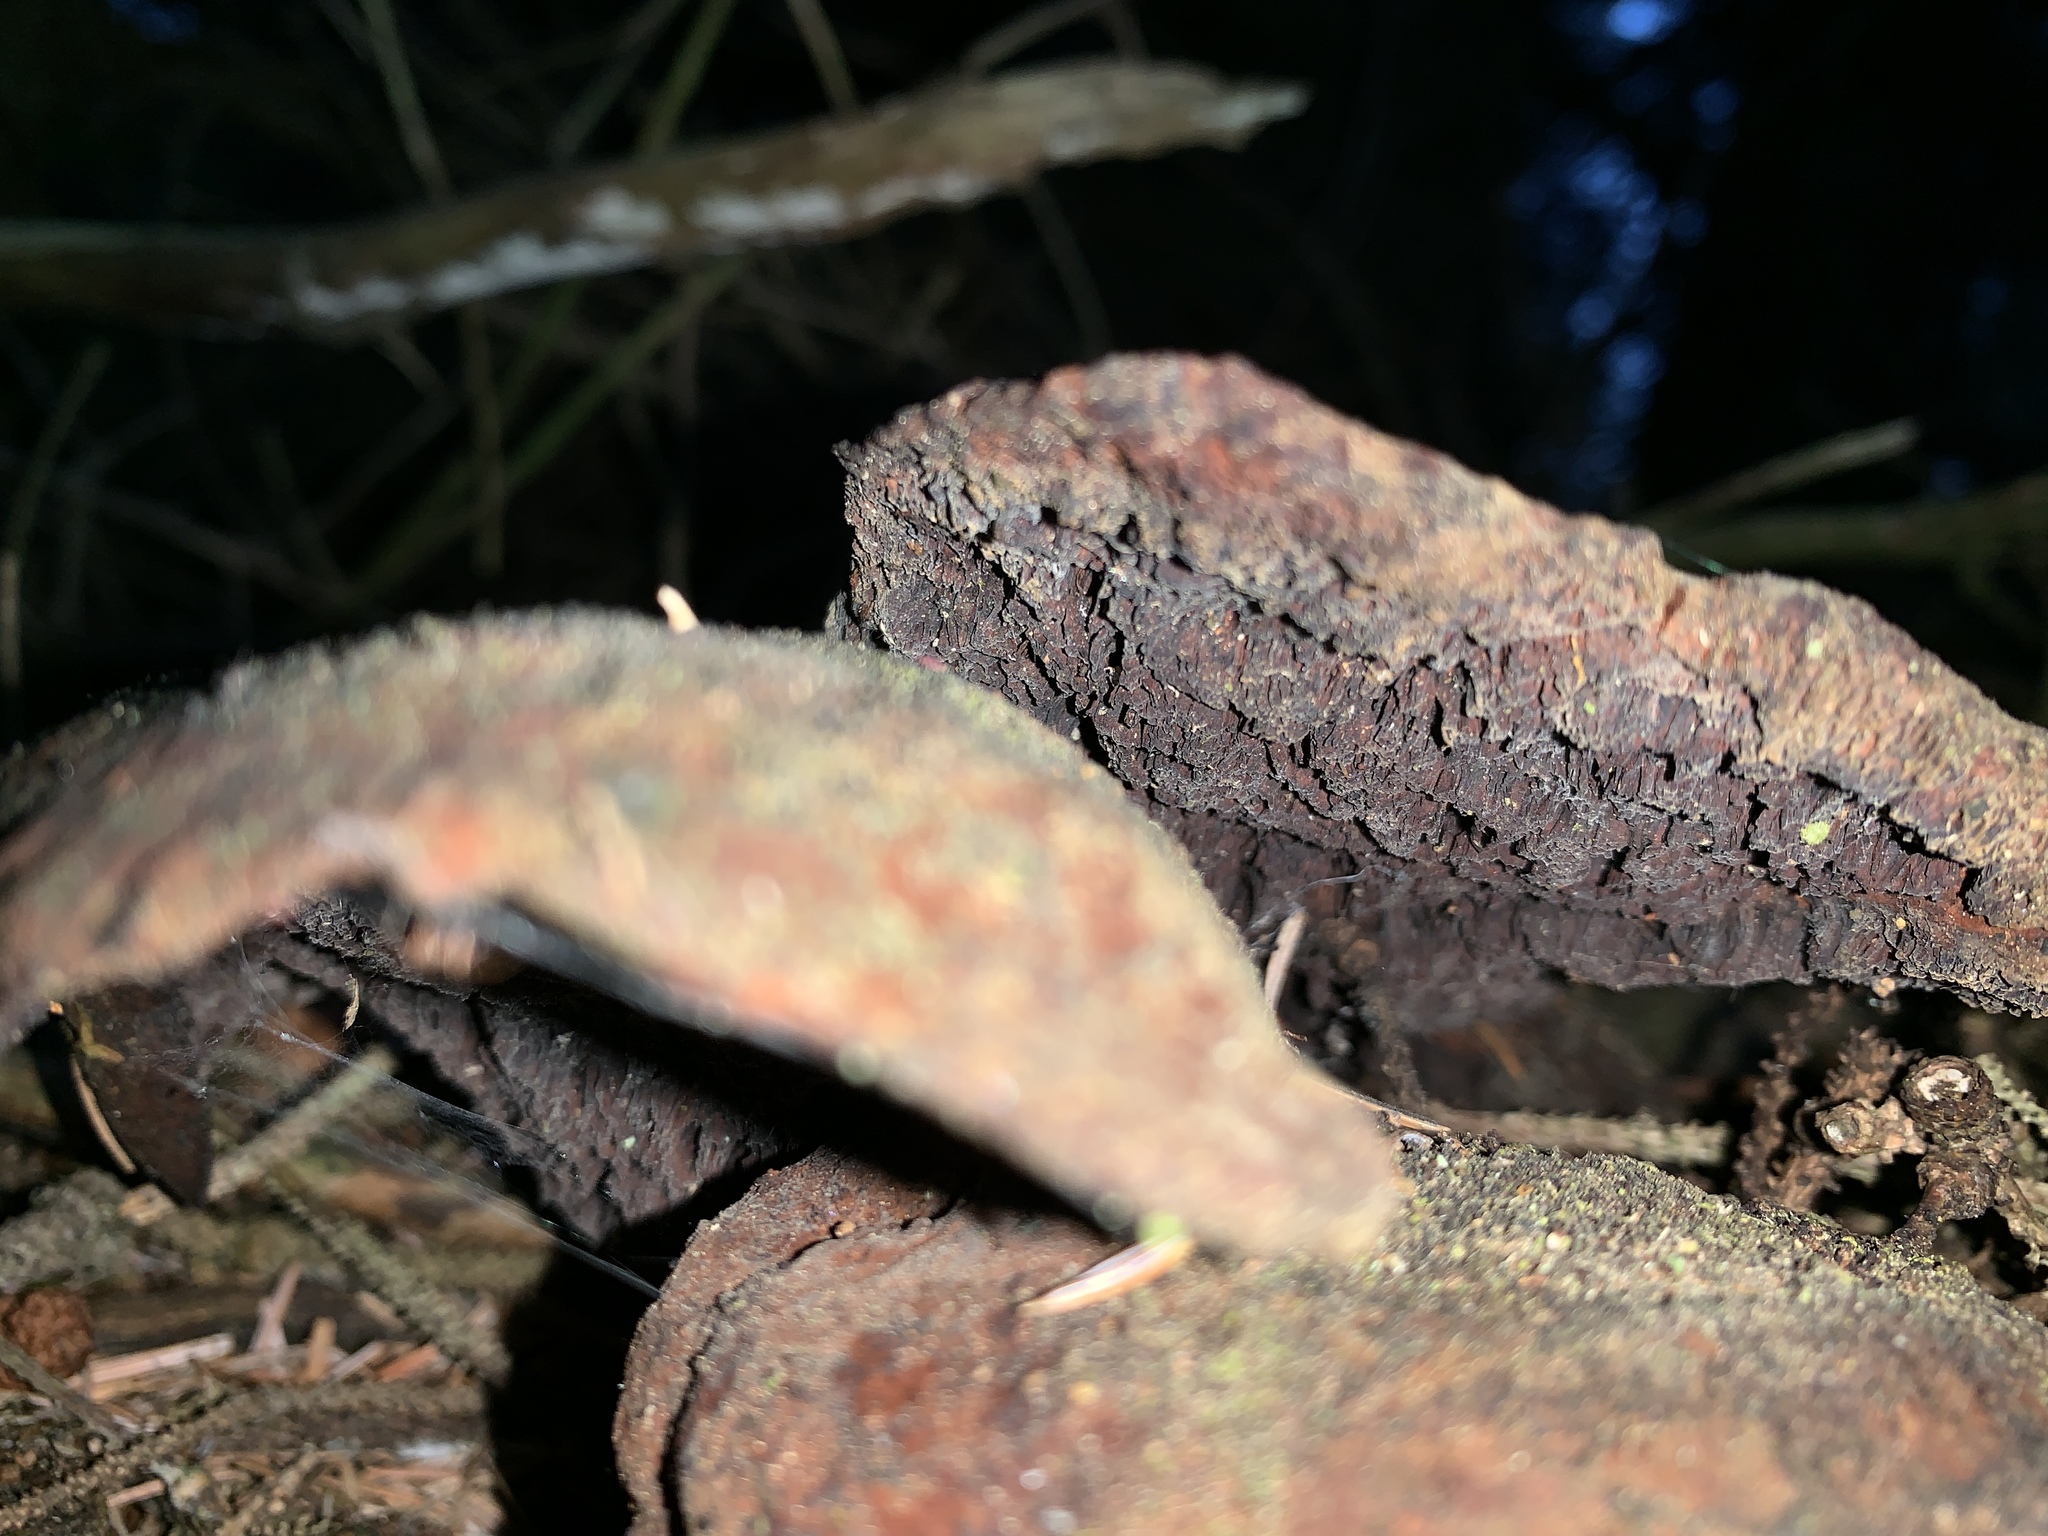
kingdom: Fungi
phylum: Basidiomycota
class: Agaricomycetes
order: Polyporales
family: Laetiporaceae
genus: Phaeolus
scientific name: Phaeolus schweinitzii
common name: Dyer's mazegill
